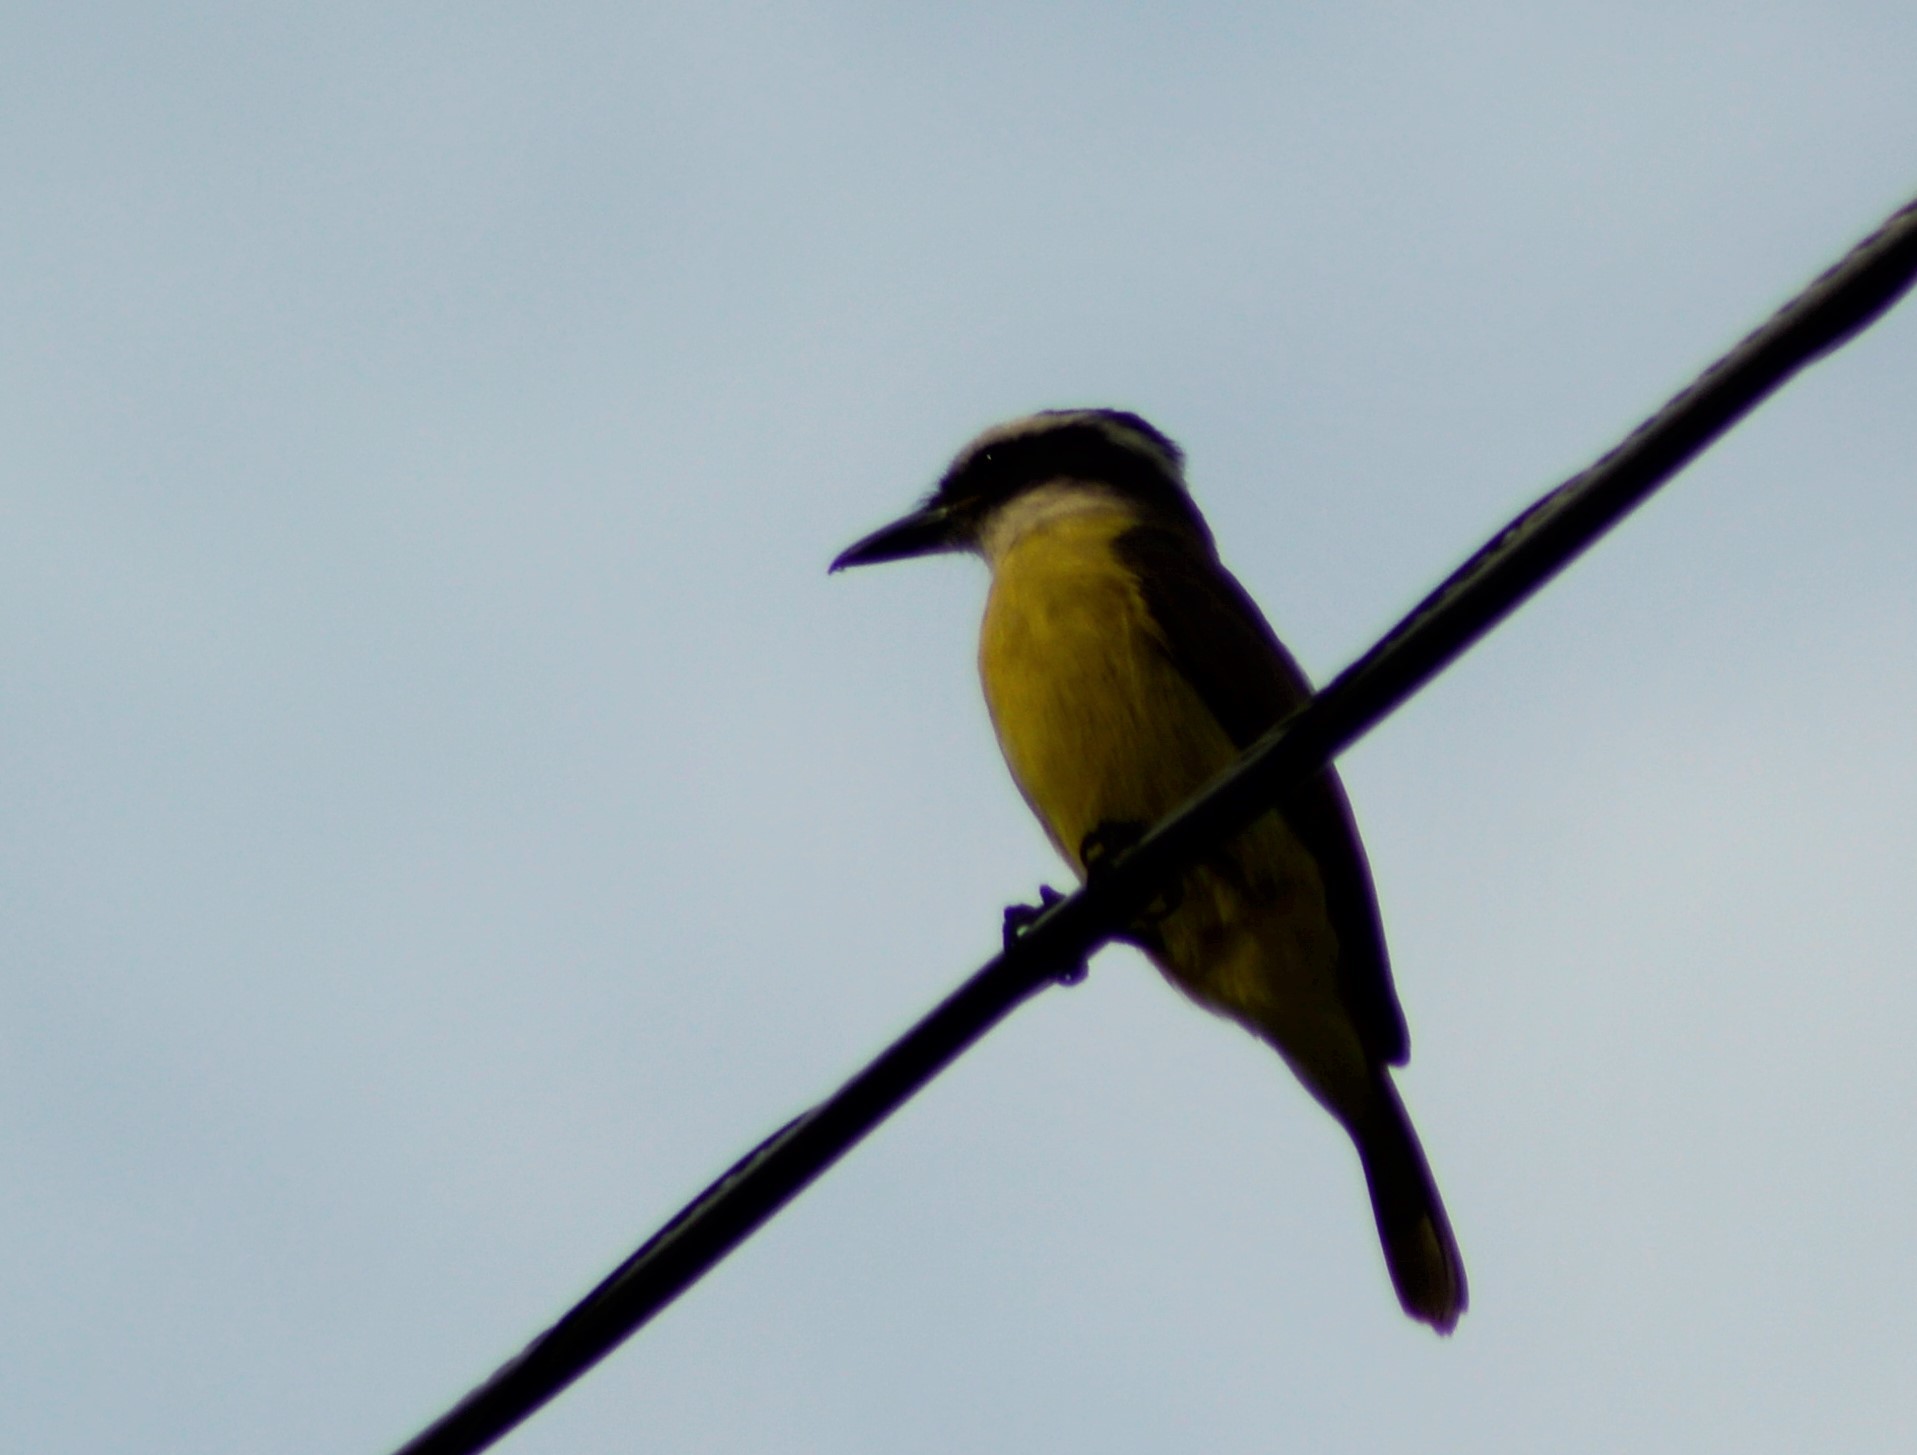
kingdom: Animalia
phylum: Chordata
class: Aves
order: Passeriformes
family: Tyrannidae
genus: Pitangus
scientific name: Pitangus sulphuratus
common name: Great kiskadee
